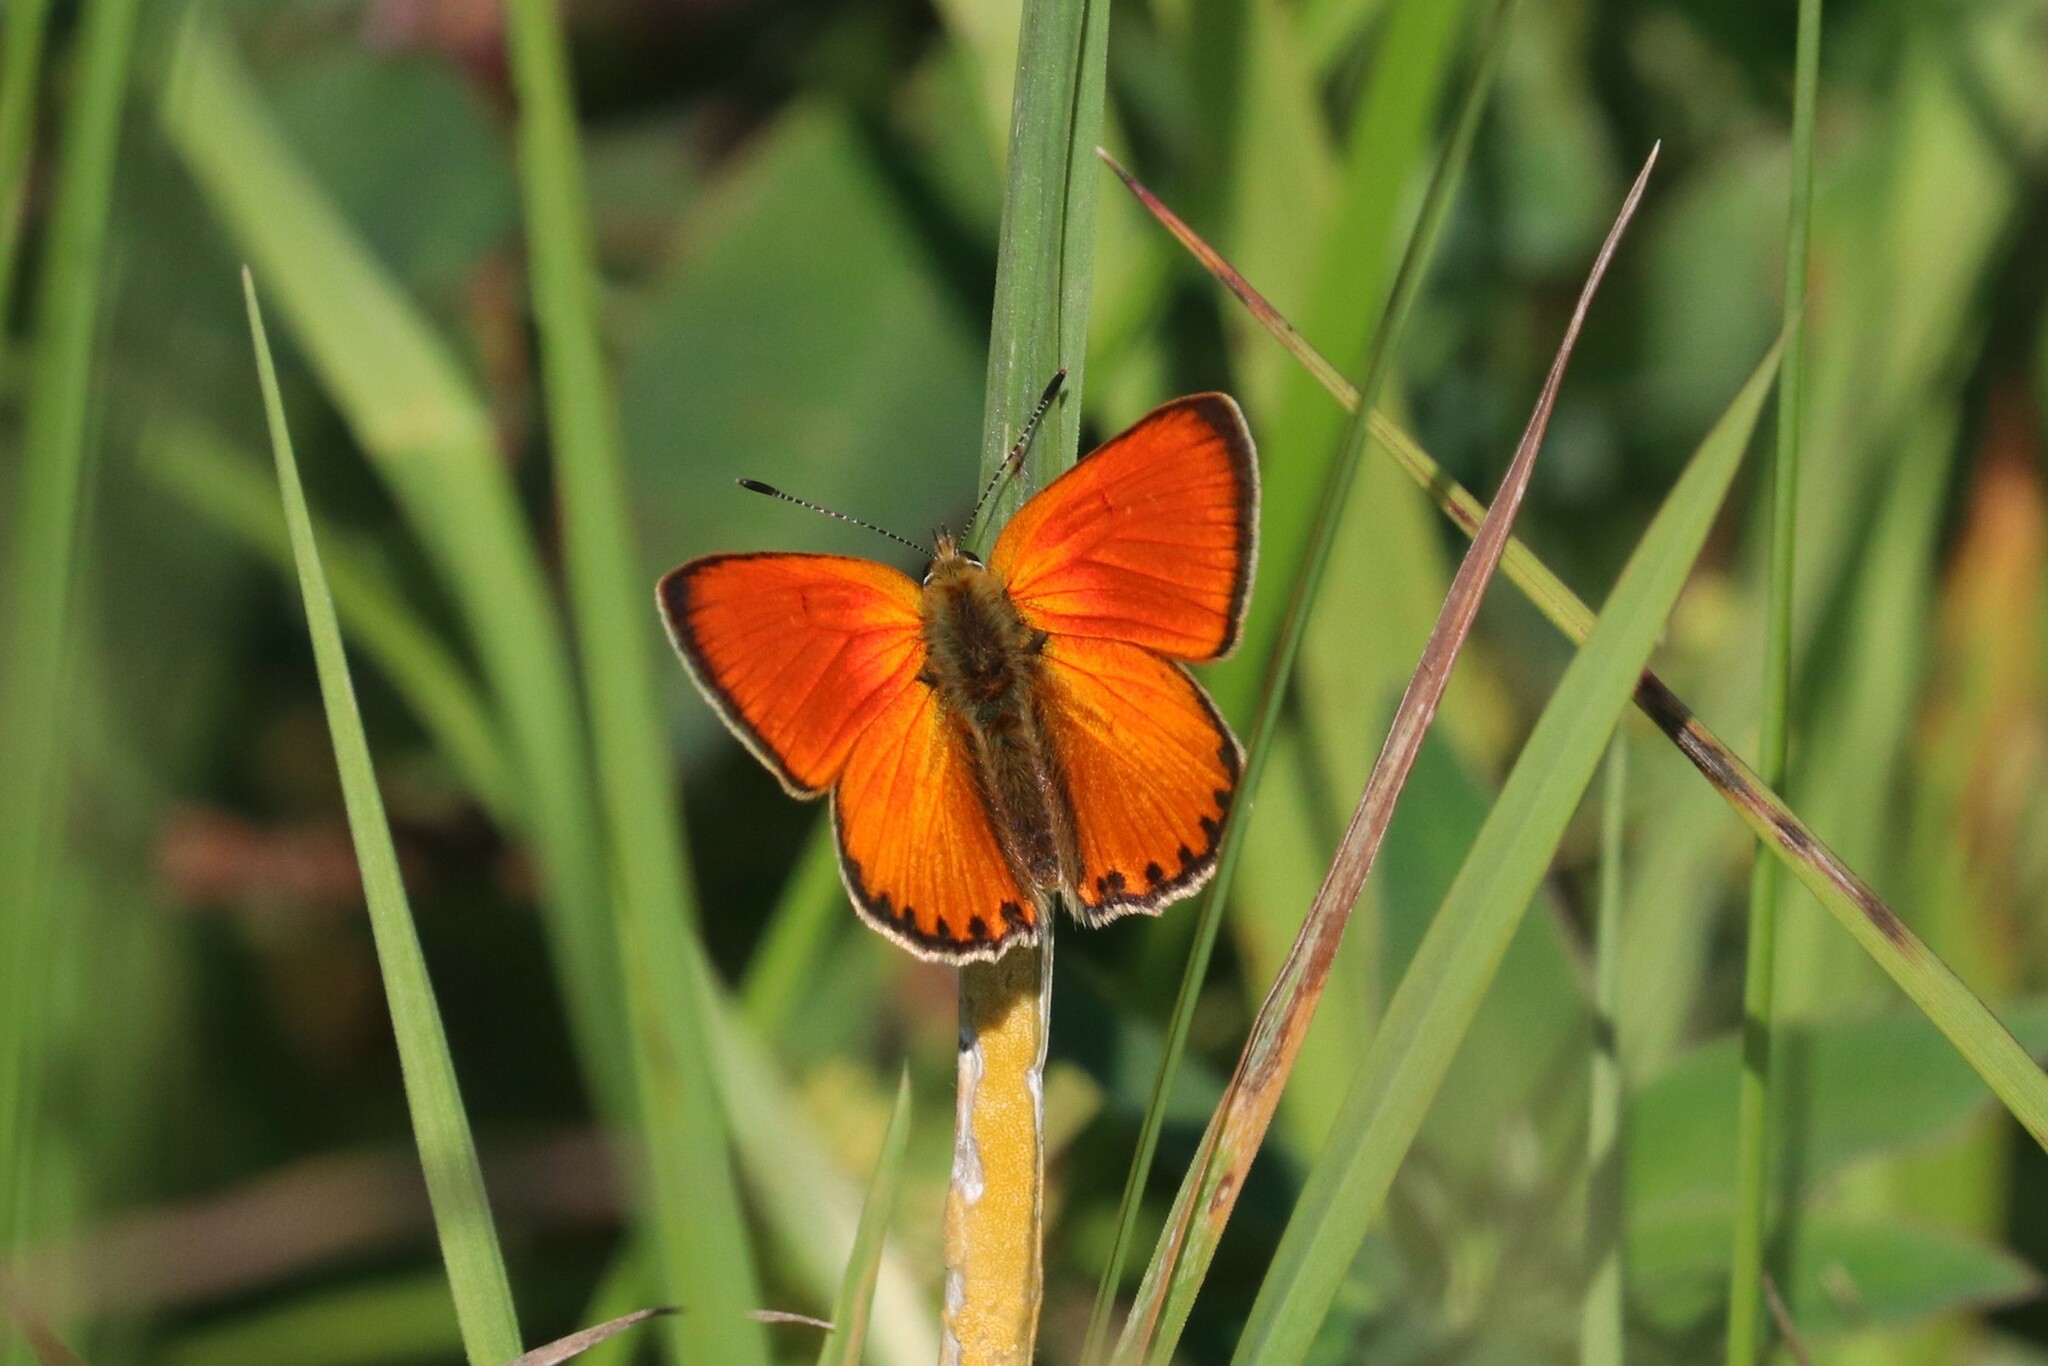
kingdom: Animalia
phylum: Arthropoda
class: Insecta
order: Lepidoptera
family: Lycaenidae
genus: Lycaena
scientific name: Lycaena virgaureae
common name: Scarce copper
